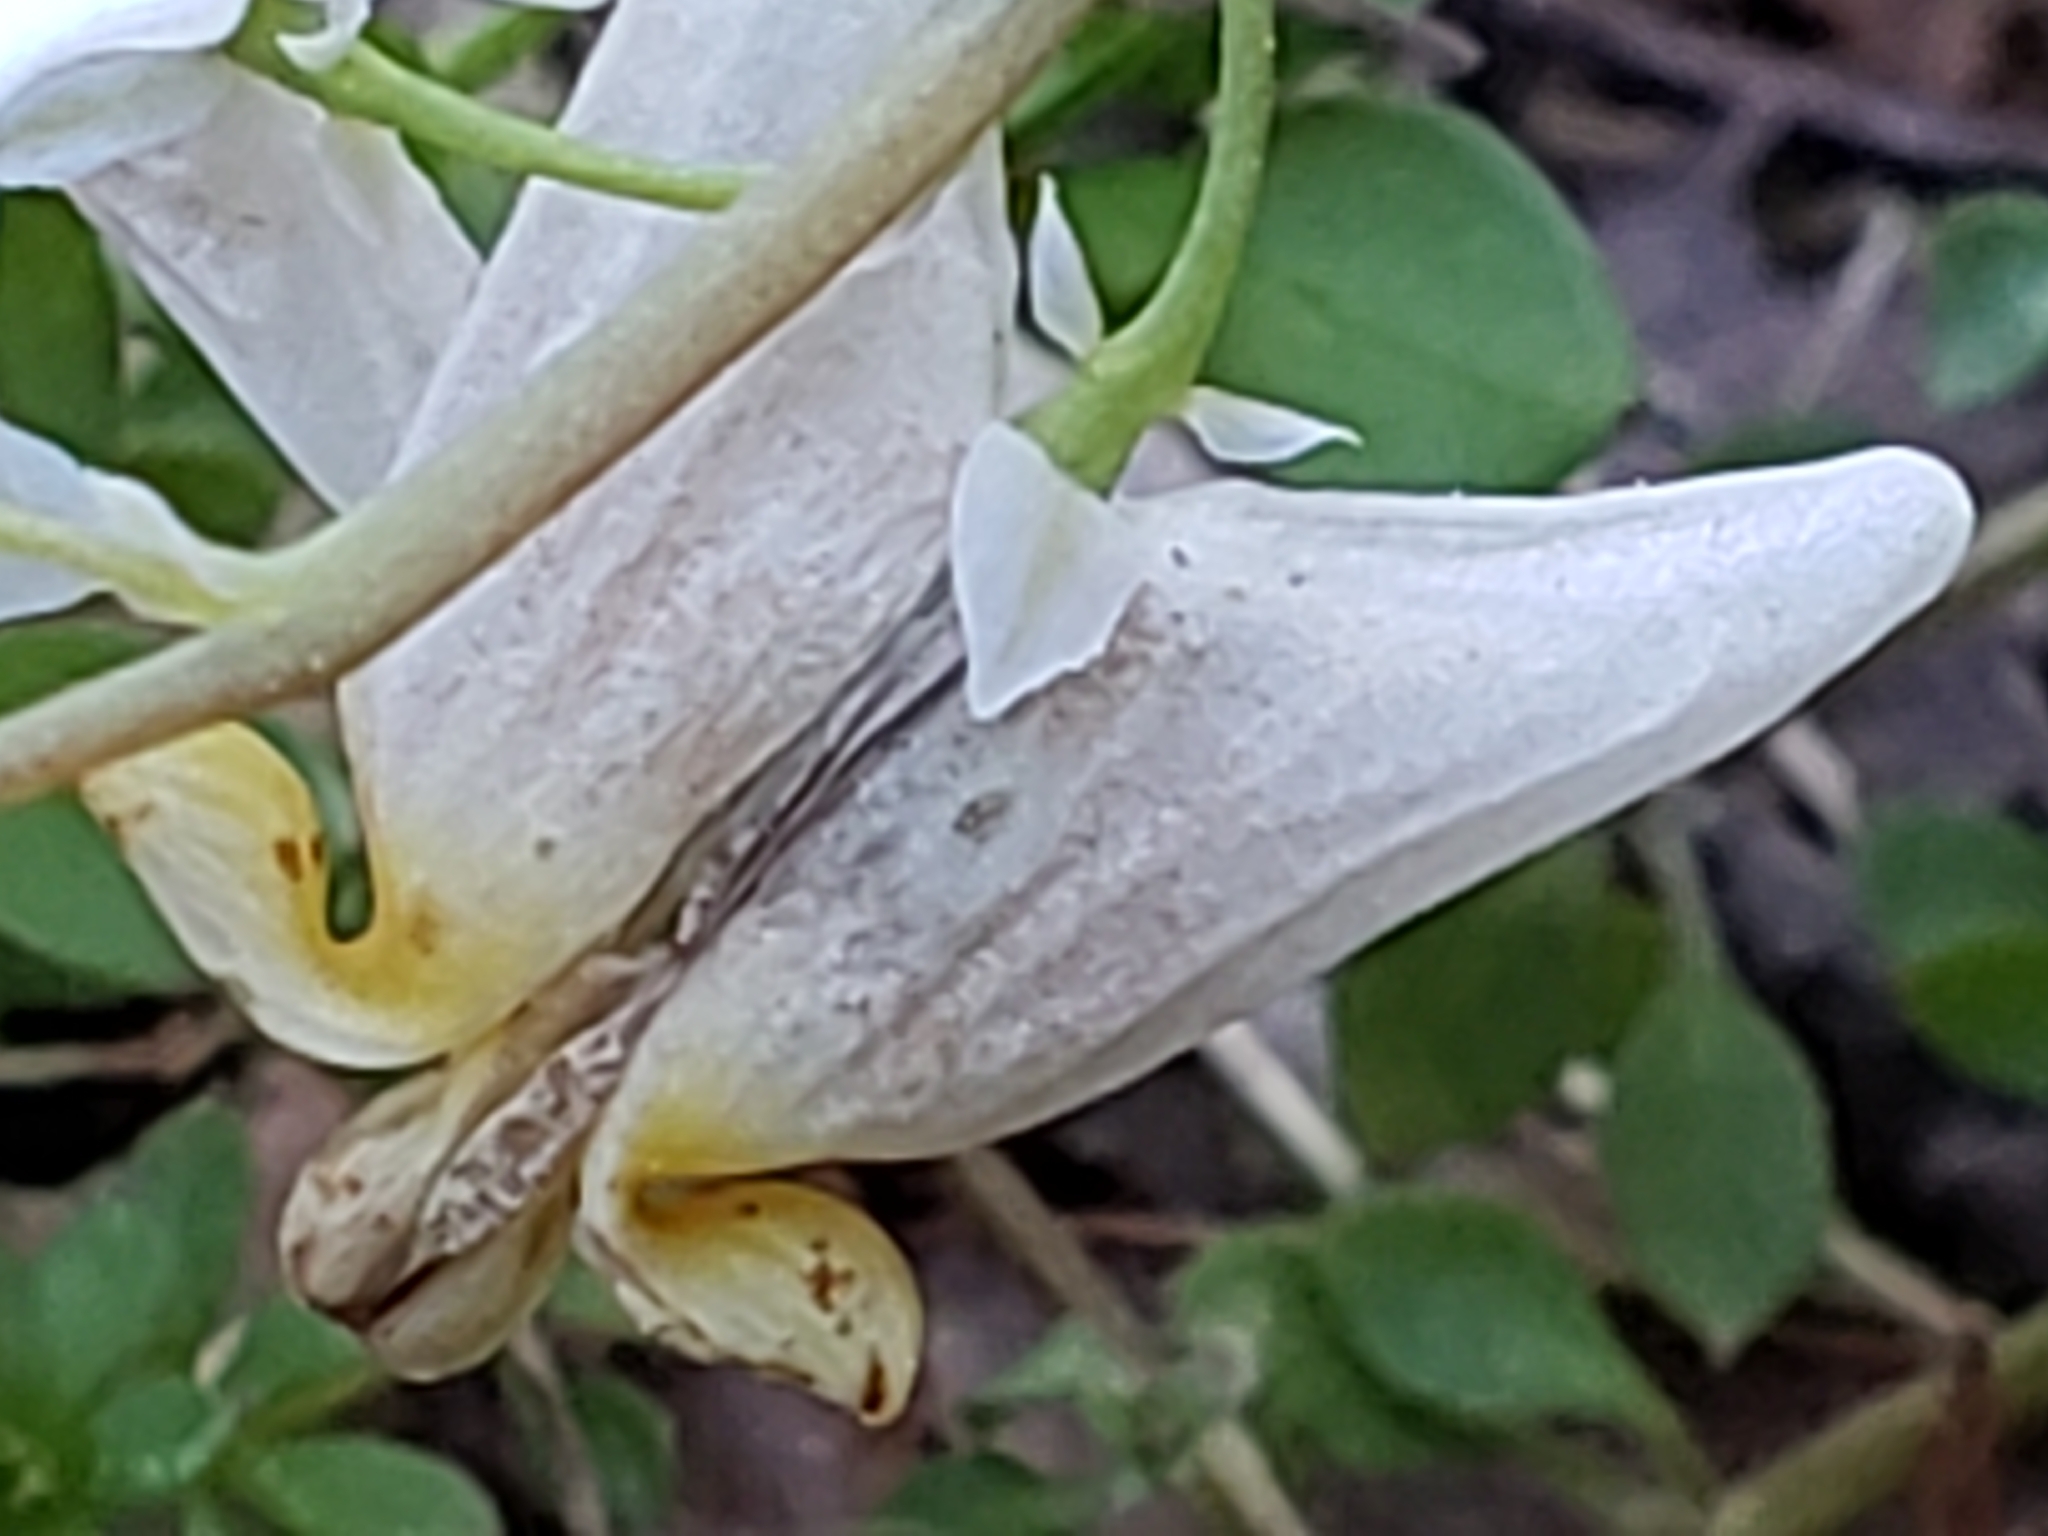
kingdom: Plantae
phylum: Tracheophyta
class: Magnoliopsida
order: Ranunculales
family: Papaveraceae
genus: Dicentra
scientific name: Dicentra cucullaria
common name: Dutchman's breeches
